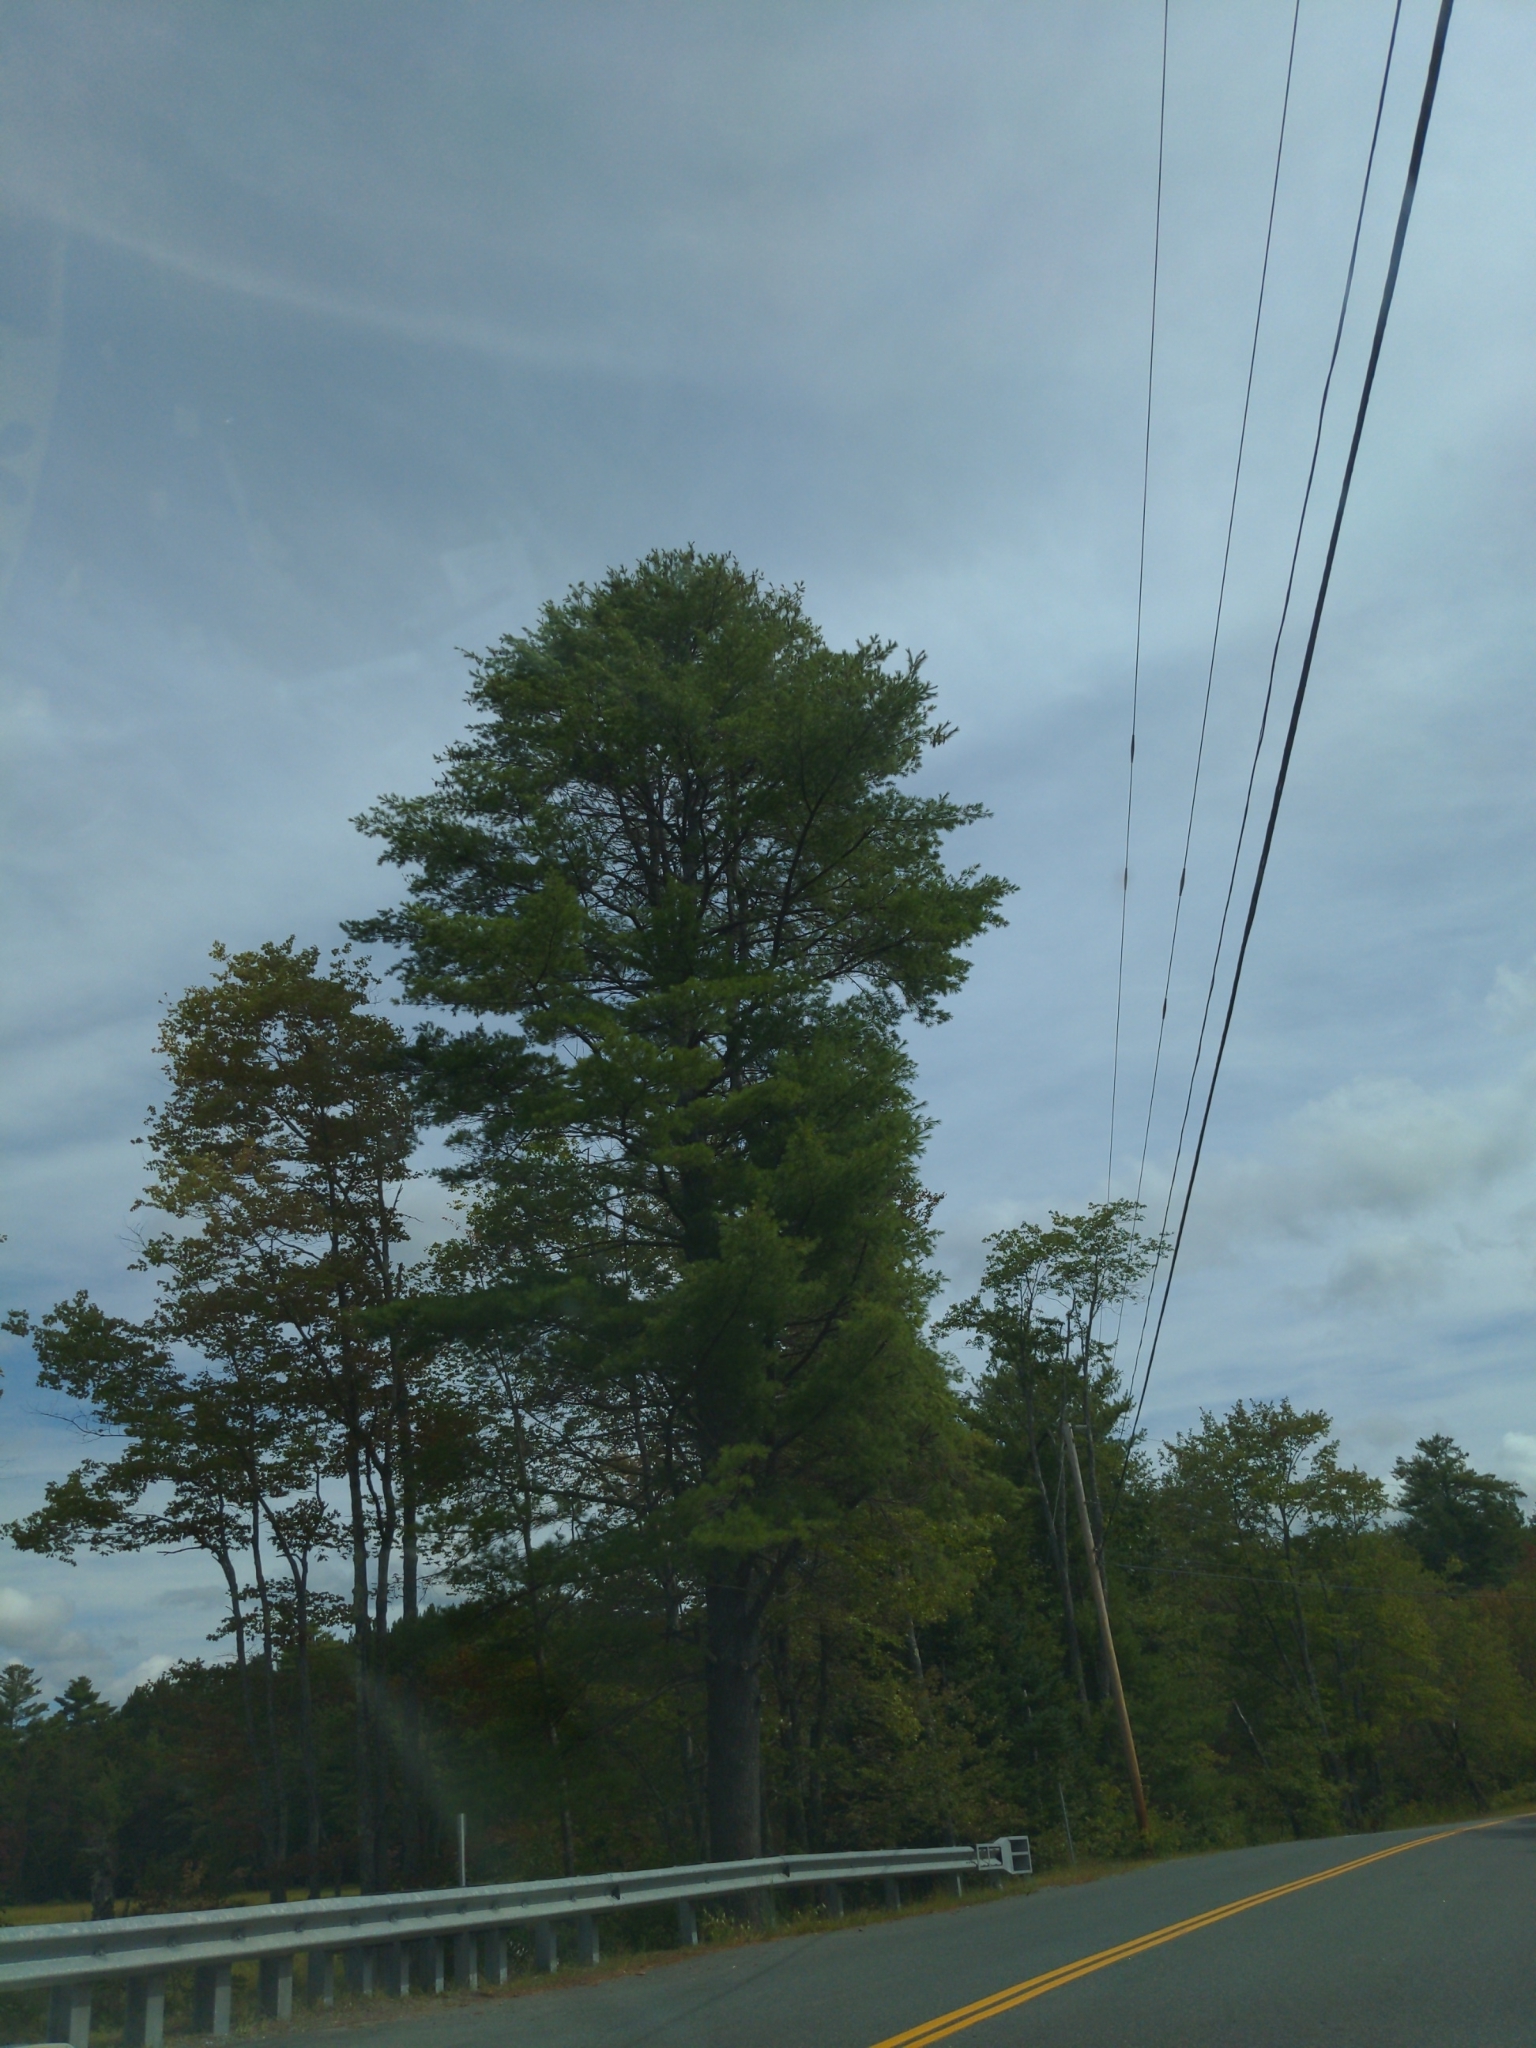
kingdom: Plantae
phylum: Tracheophyta
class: Pinopsida
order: Pinales
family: Pinaceae
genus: Pinus
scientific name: Pinus strobus
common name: Weymouth pine
